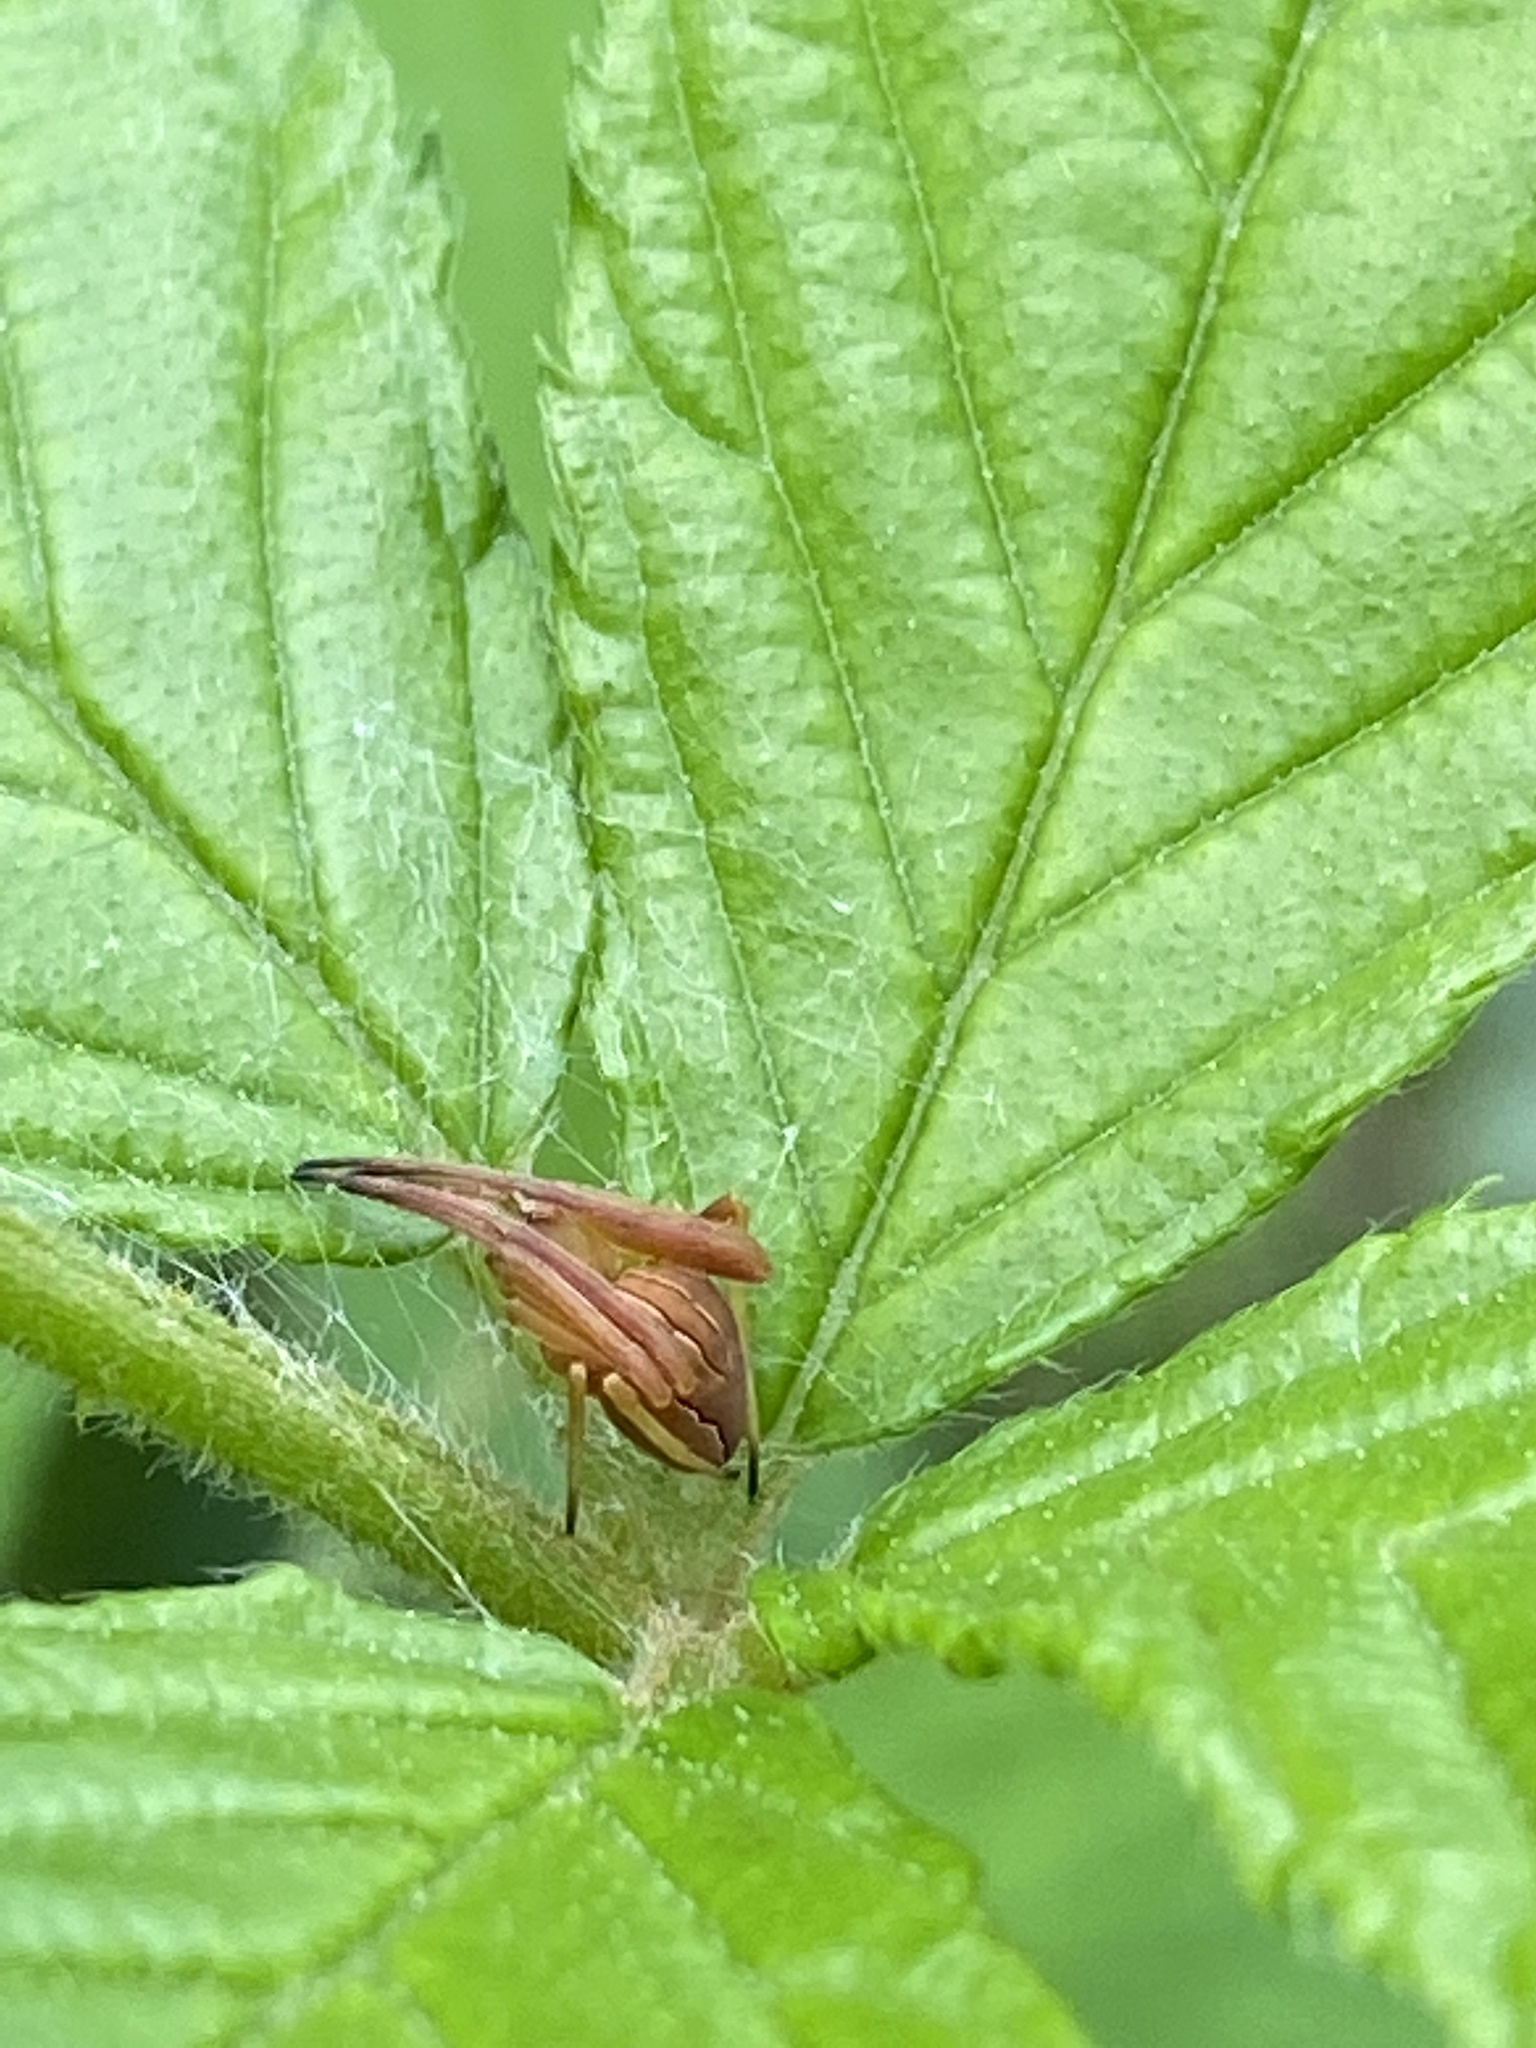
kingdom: Animalia
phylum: Arthropoda
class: Arachnida
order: Araneae
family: Araneidae
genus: Acacesia
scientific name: Acacesia hamata
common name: Orb weavers
